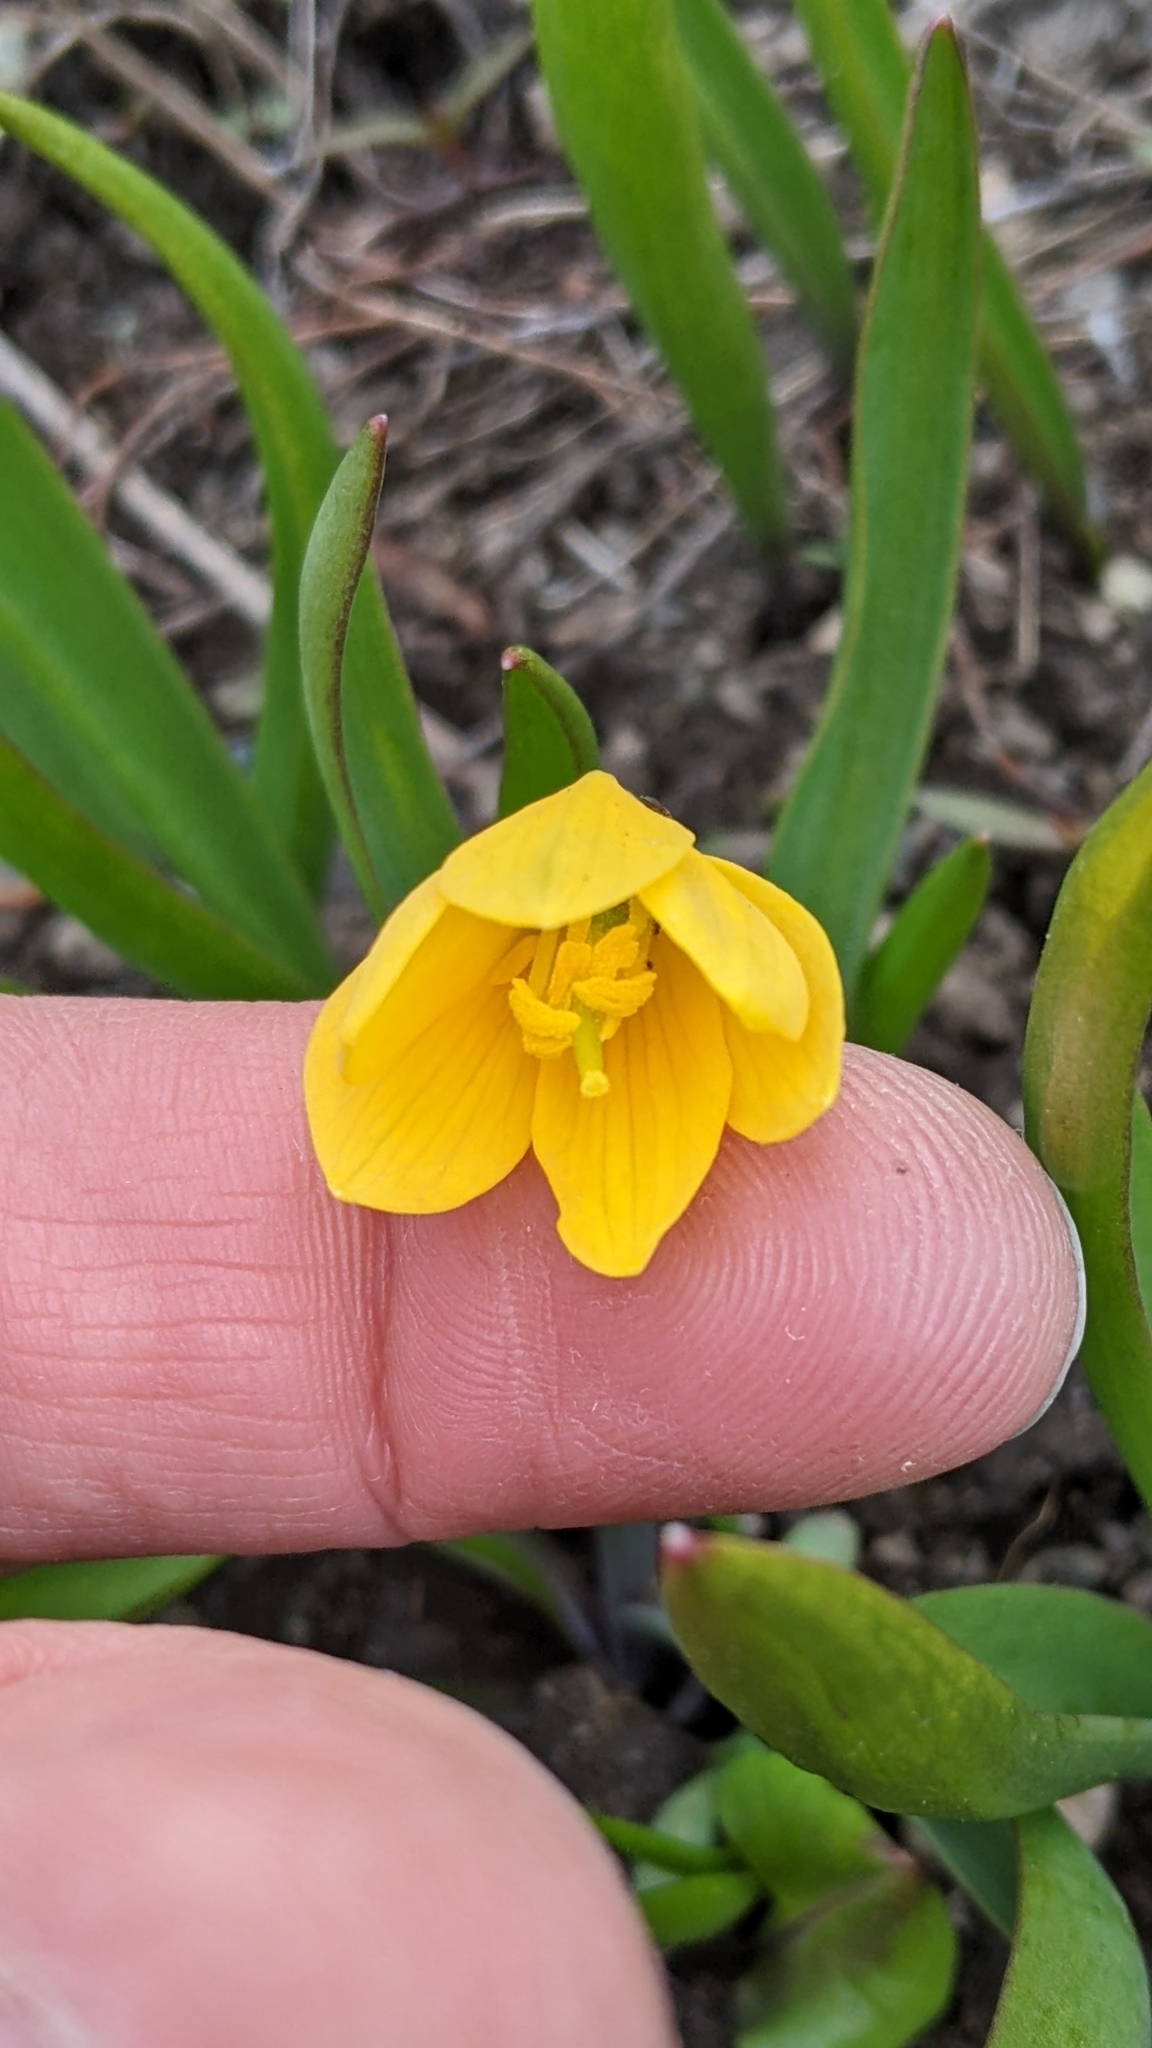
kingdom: Plantae
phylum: Tracheophyta
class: Liliopsida
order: Liliales
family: Liliaceae
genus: Fritillaria
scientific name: Fritillaria pudica
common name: Yellow fritillary
